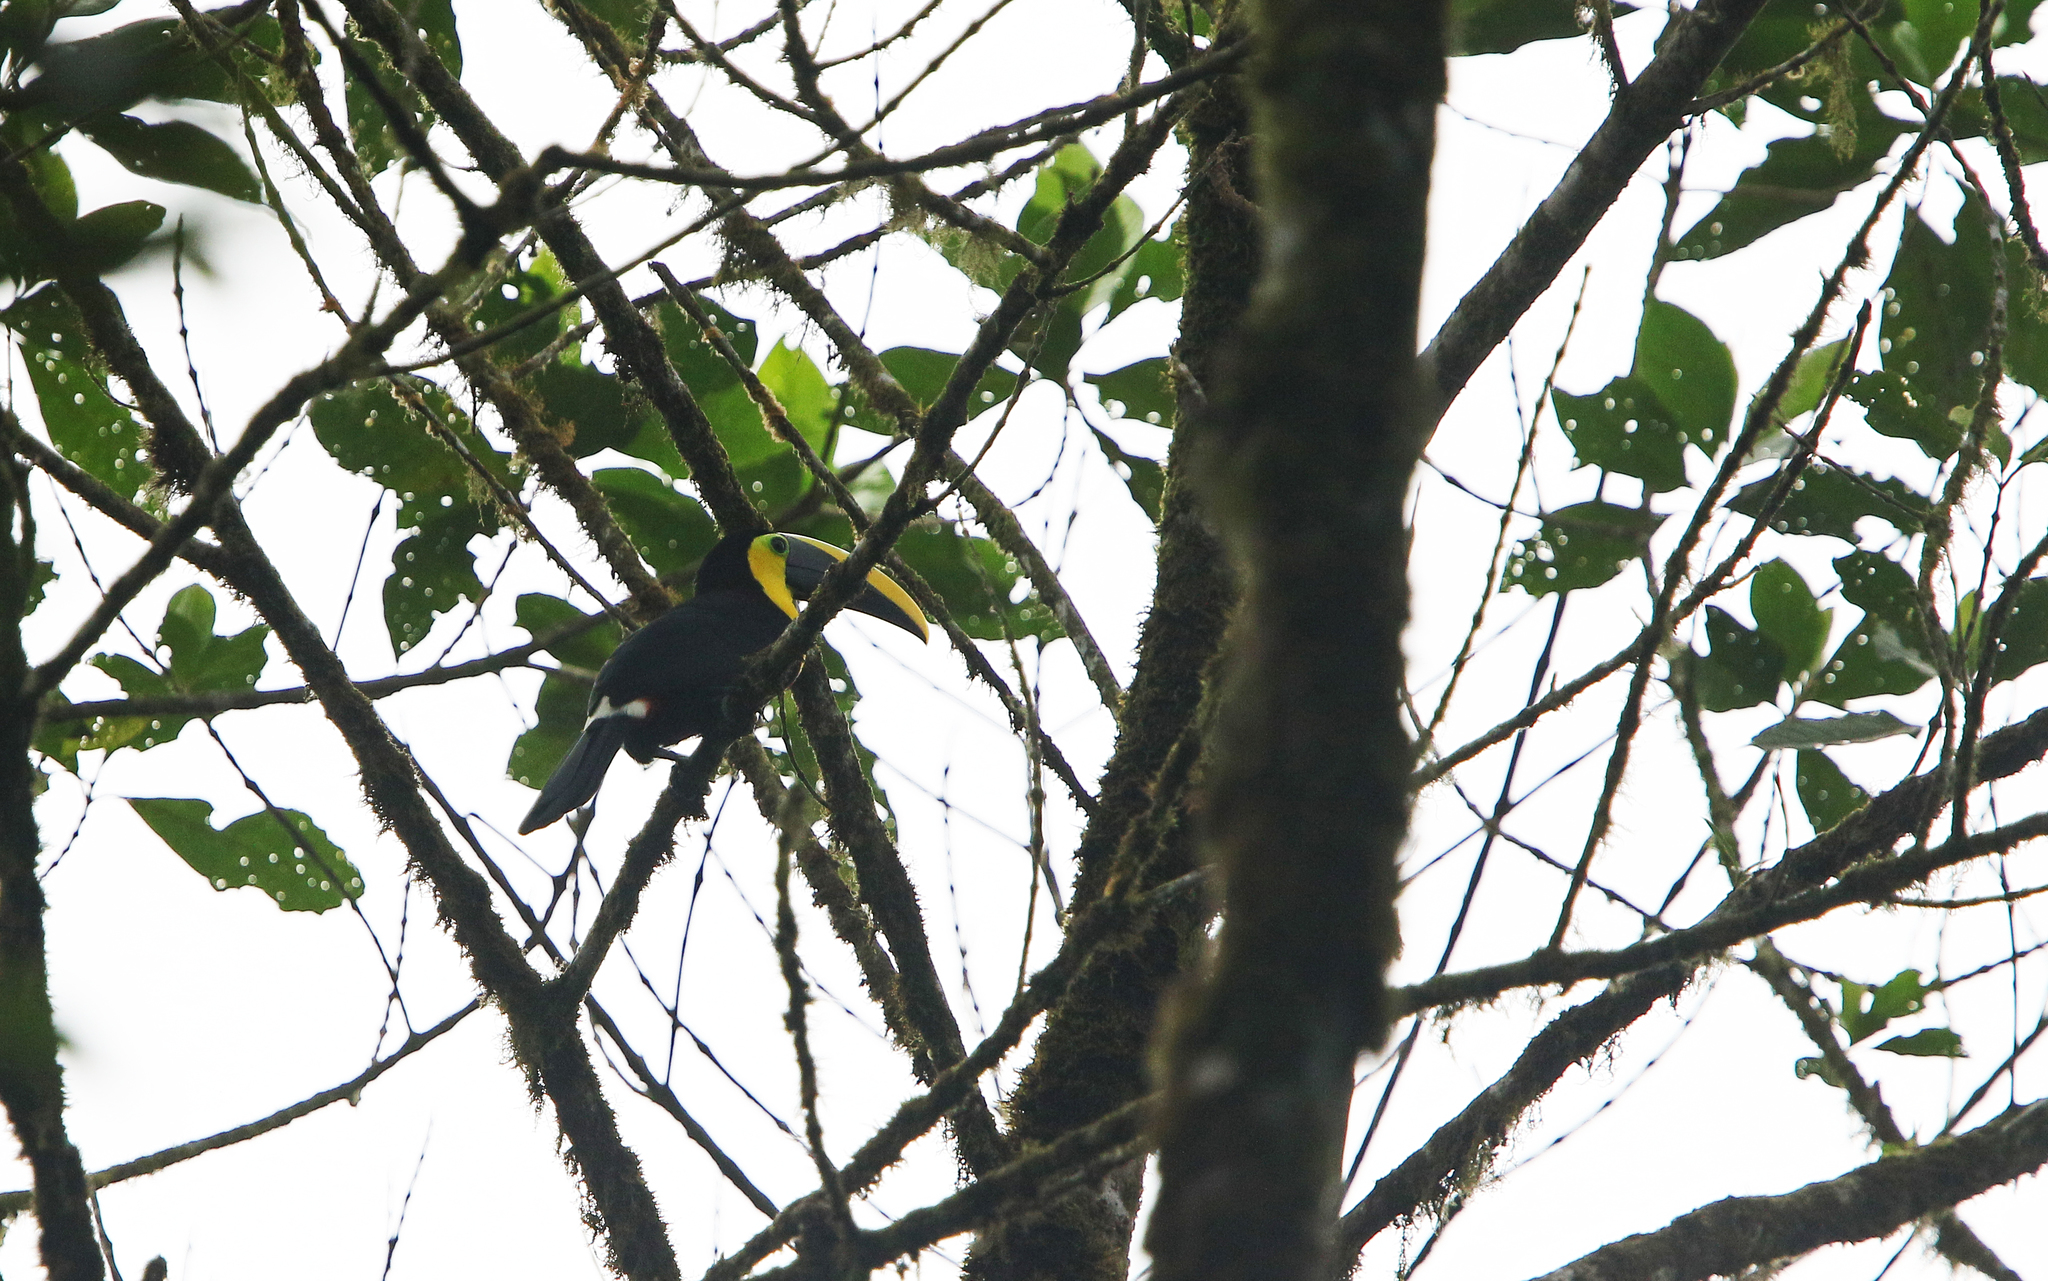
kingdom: Animalia
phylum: Chordata
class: Aves
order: Piciformes
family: Ramphastidae
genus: Ramphastos
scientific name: Ramphastos ambiguus
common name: Yellow-throated toucan
